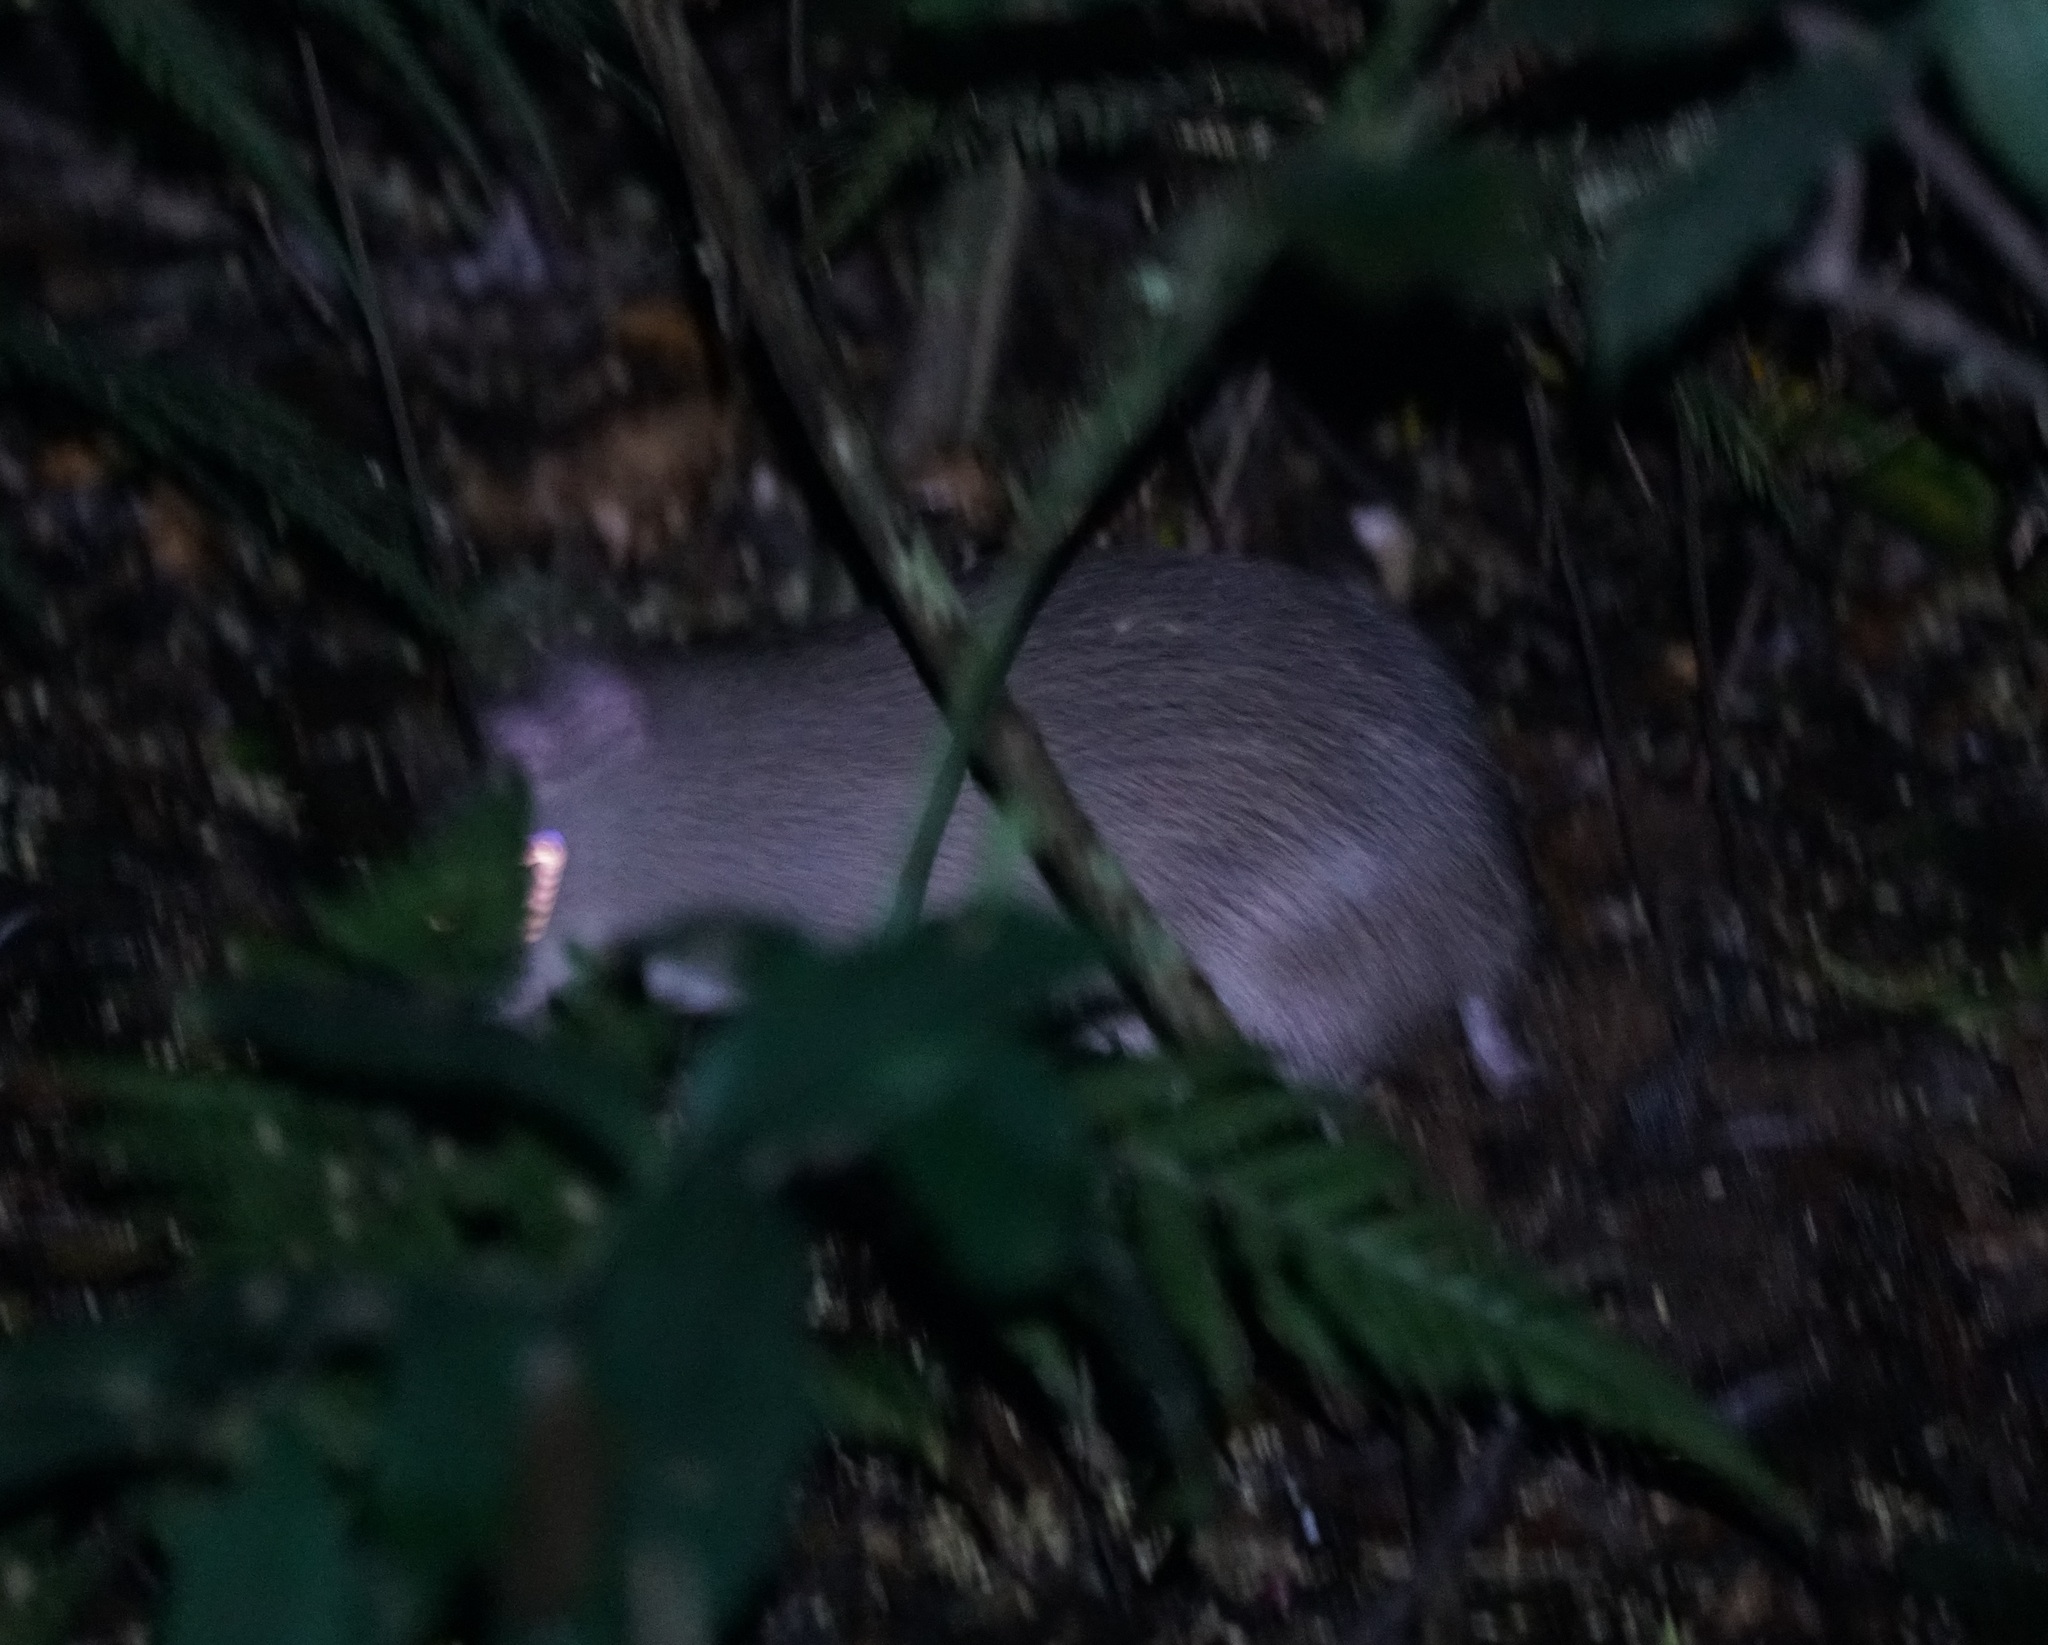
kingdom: Animalia
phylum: Chordata
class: Mammalia
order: Peramelemorphia
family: Peramelidae
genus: Perameles
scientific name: Perameles nasuta
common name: Long-nosed bandicoot
